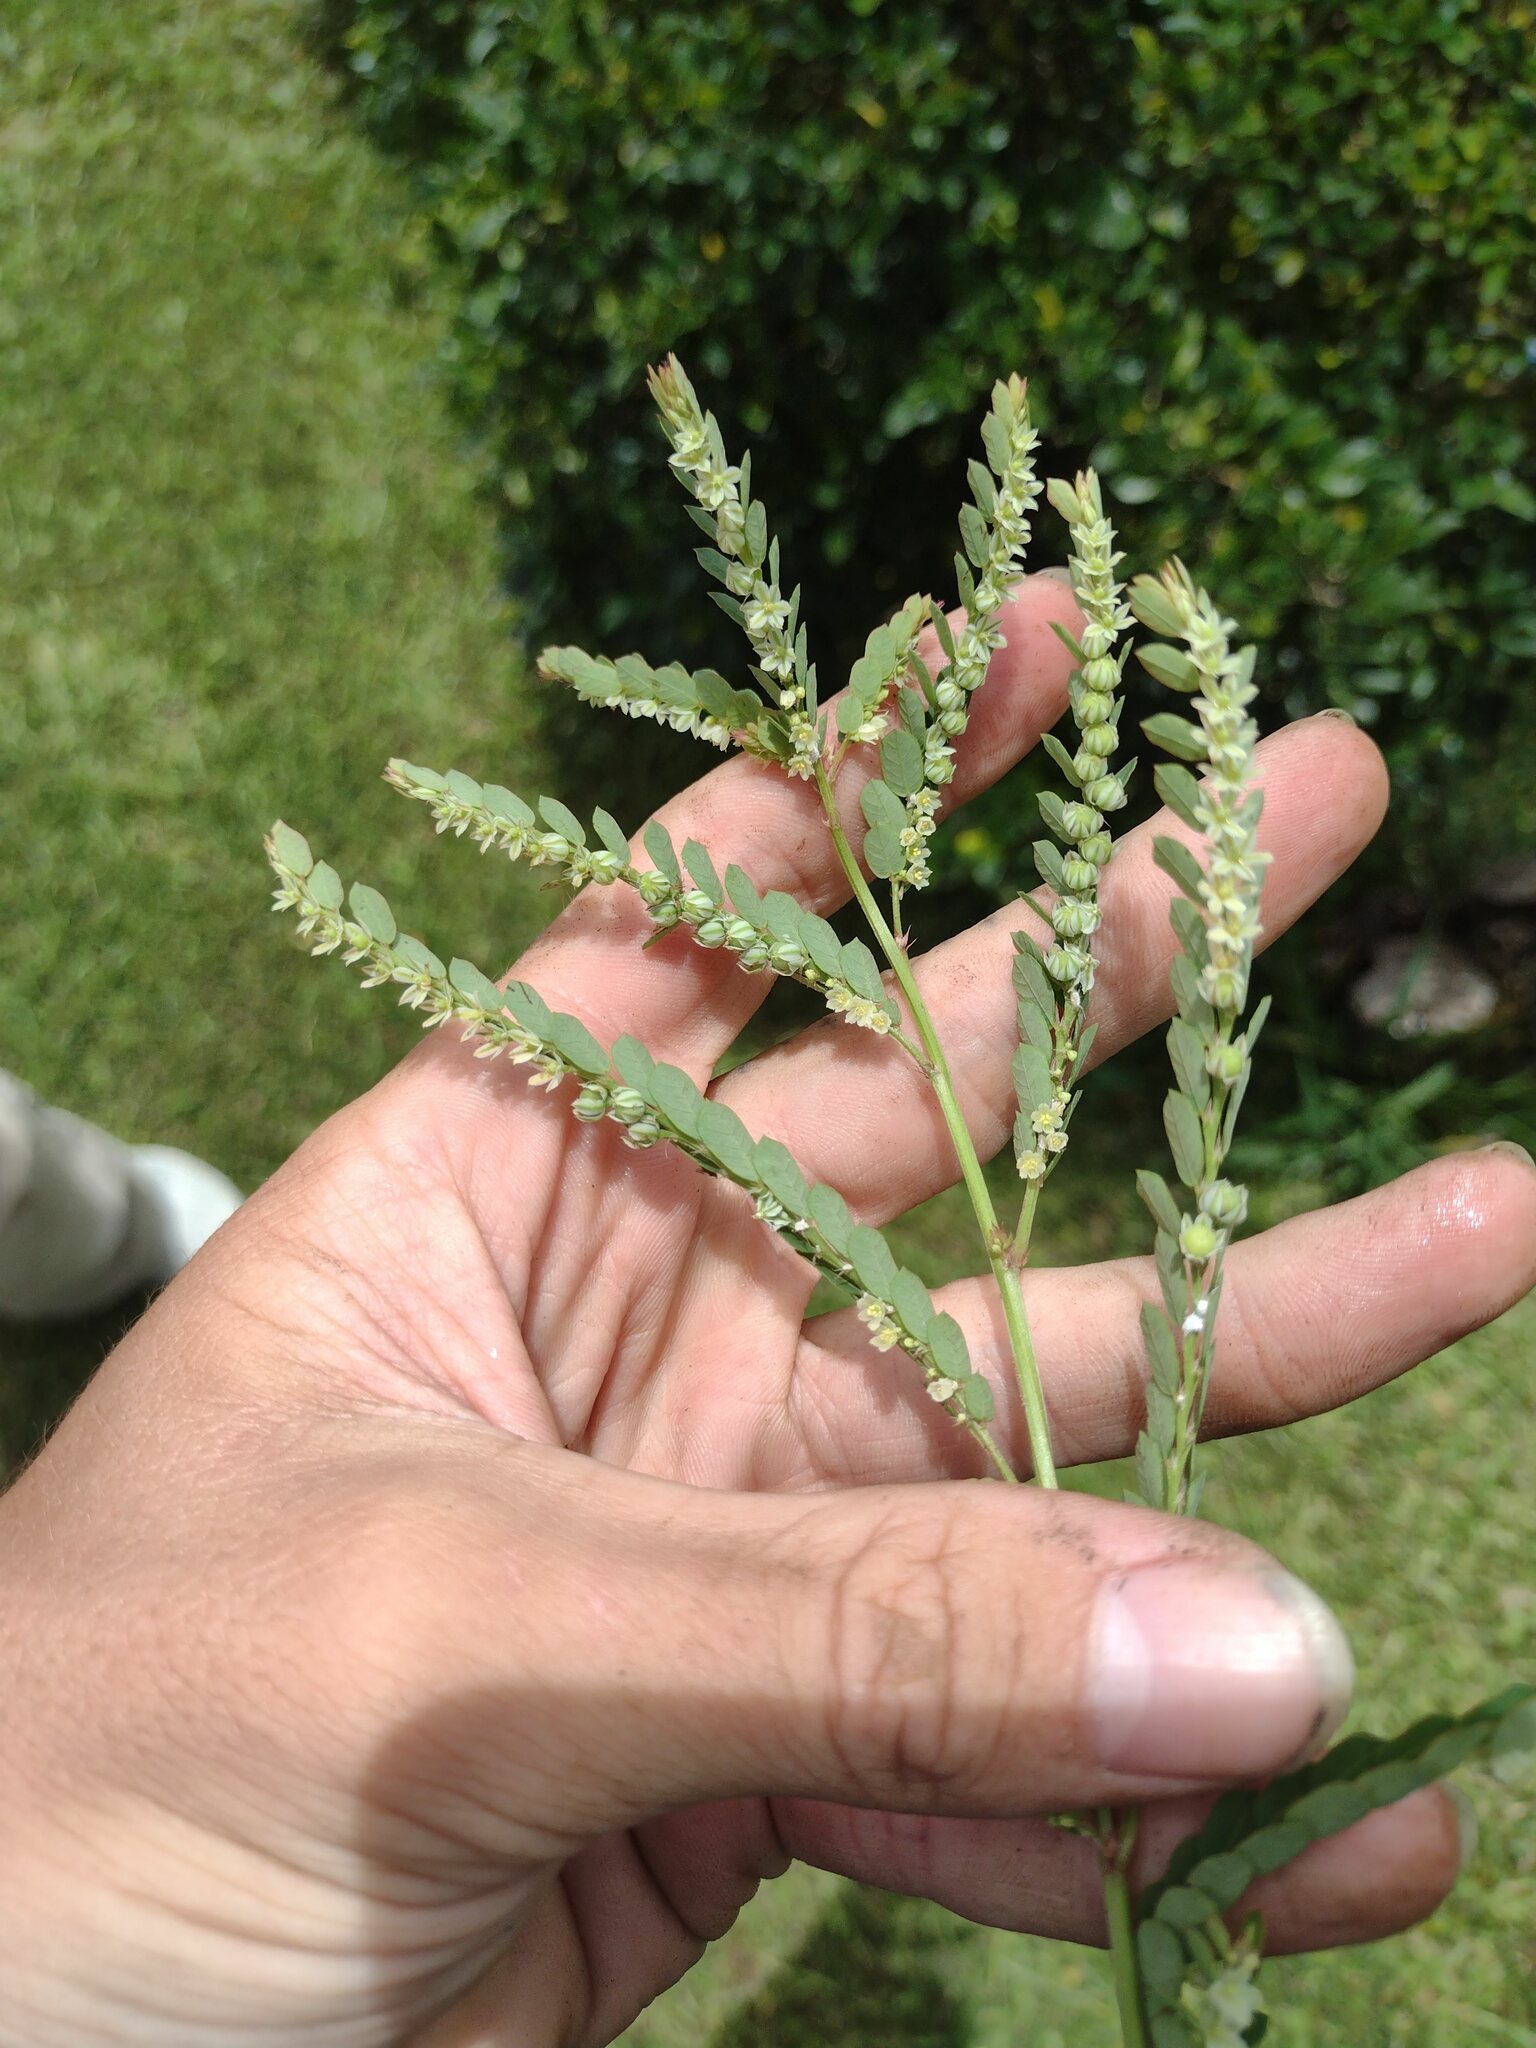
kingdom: Plantae
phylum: Tracheophyta
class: Magnoliopsida
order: Malpighiales
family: Phyllanthaceae
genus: Phyllanthus
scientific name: Phyllanthus leucanthus
